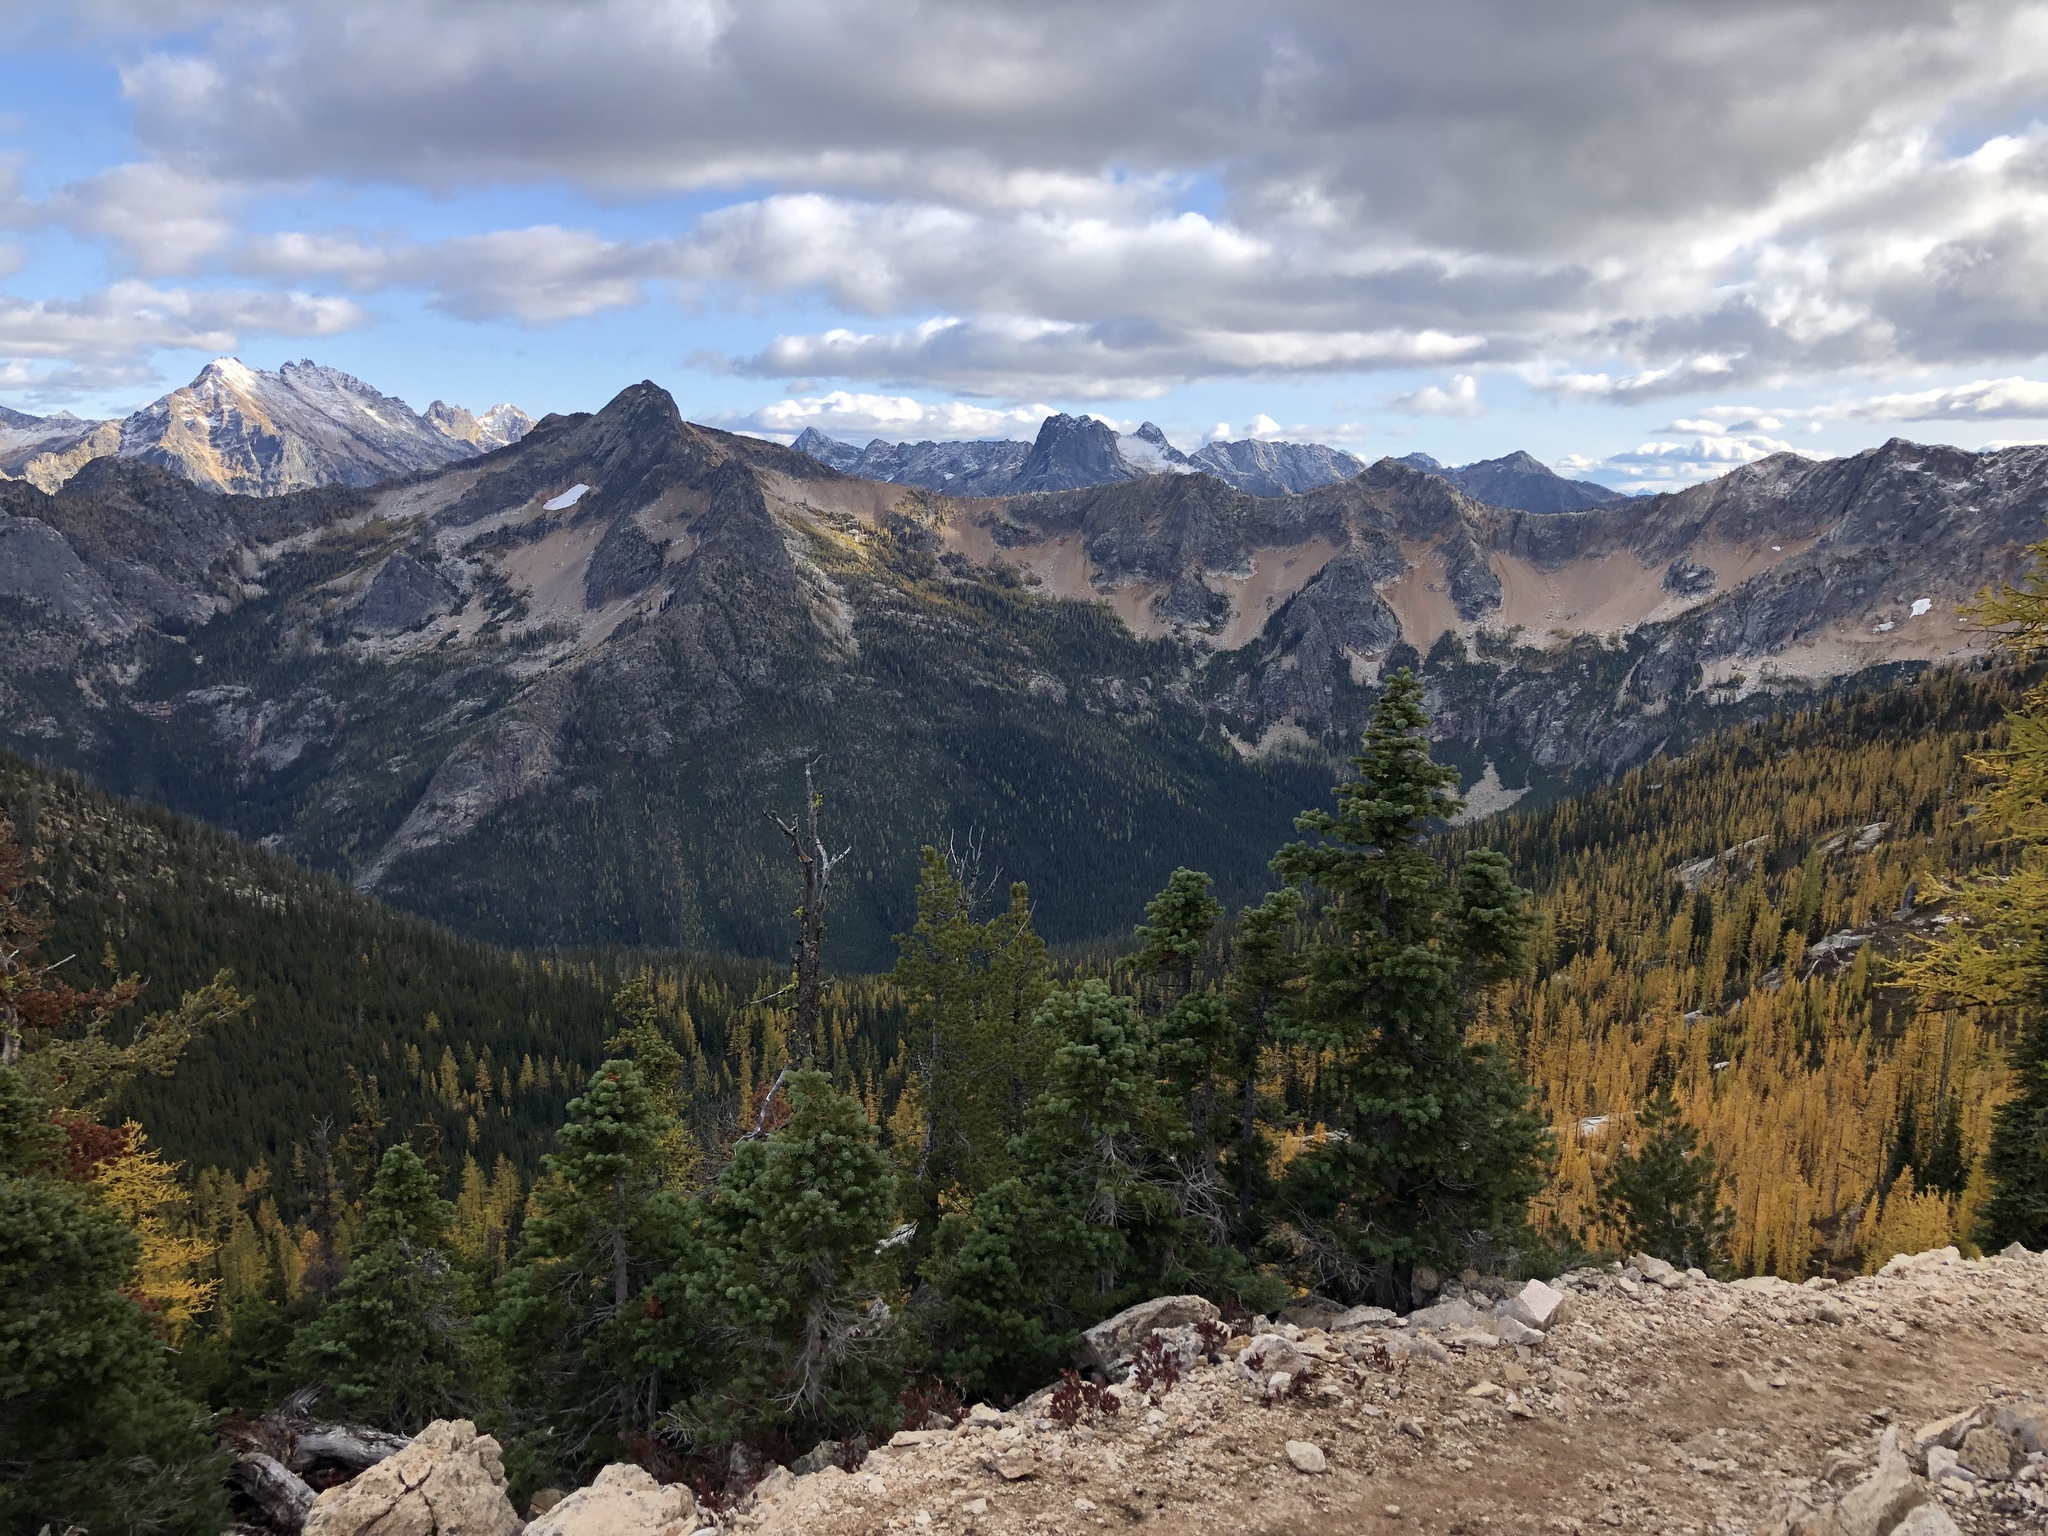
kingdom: Plantae
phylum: Tracheophyta
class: Pinopsida
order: Pinales
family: Pinaceae
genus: Abies
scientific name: Abies lasiocarpa
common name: Subalpine fir
